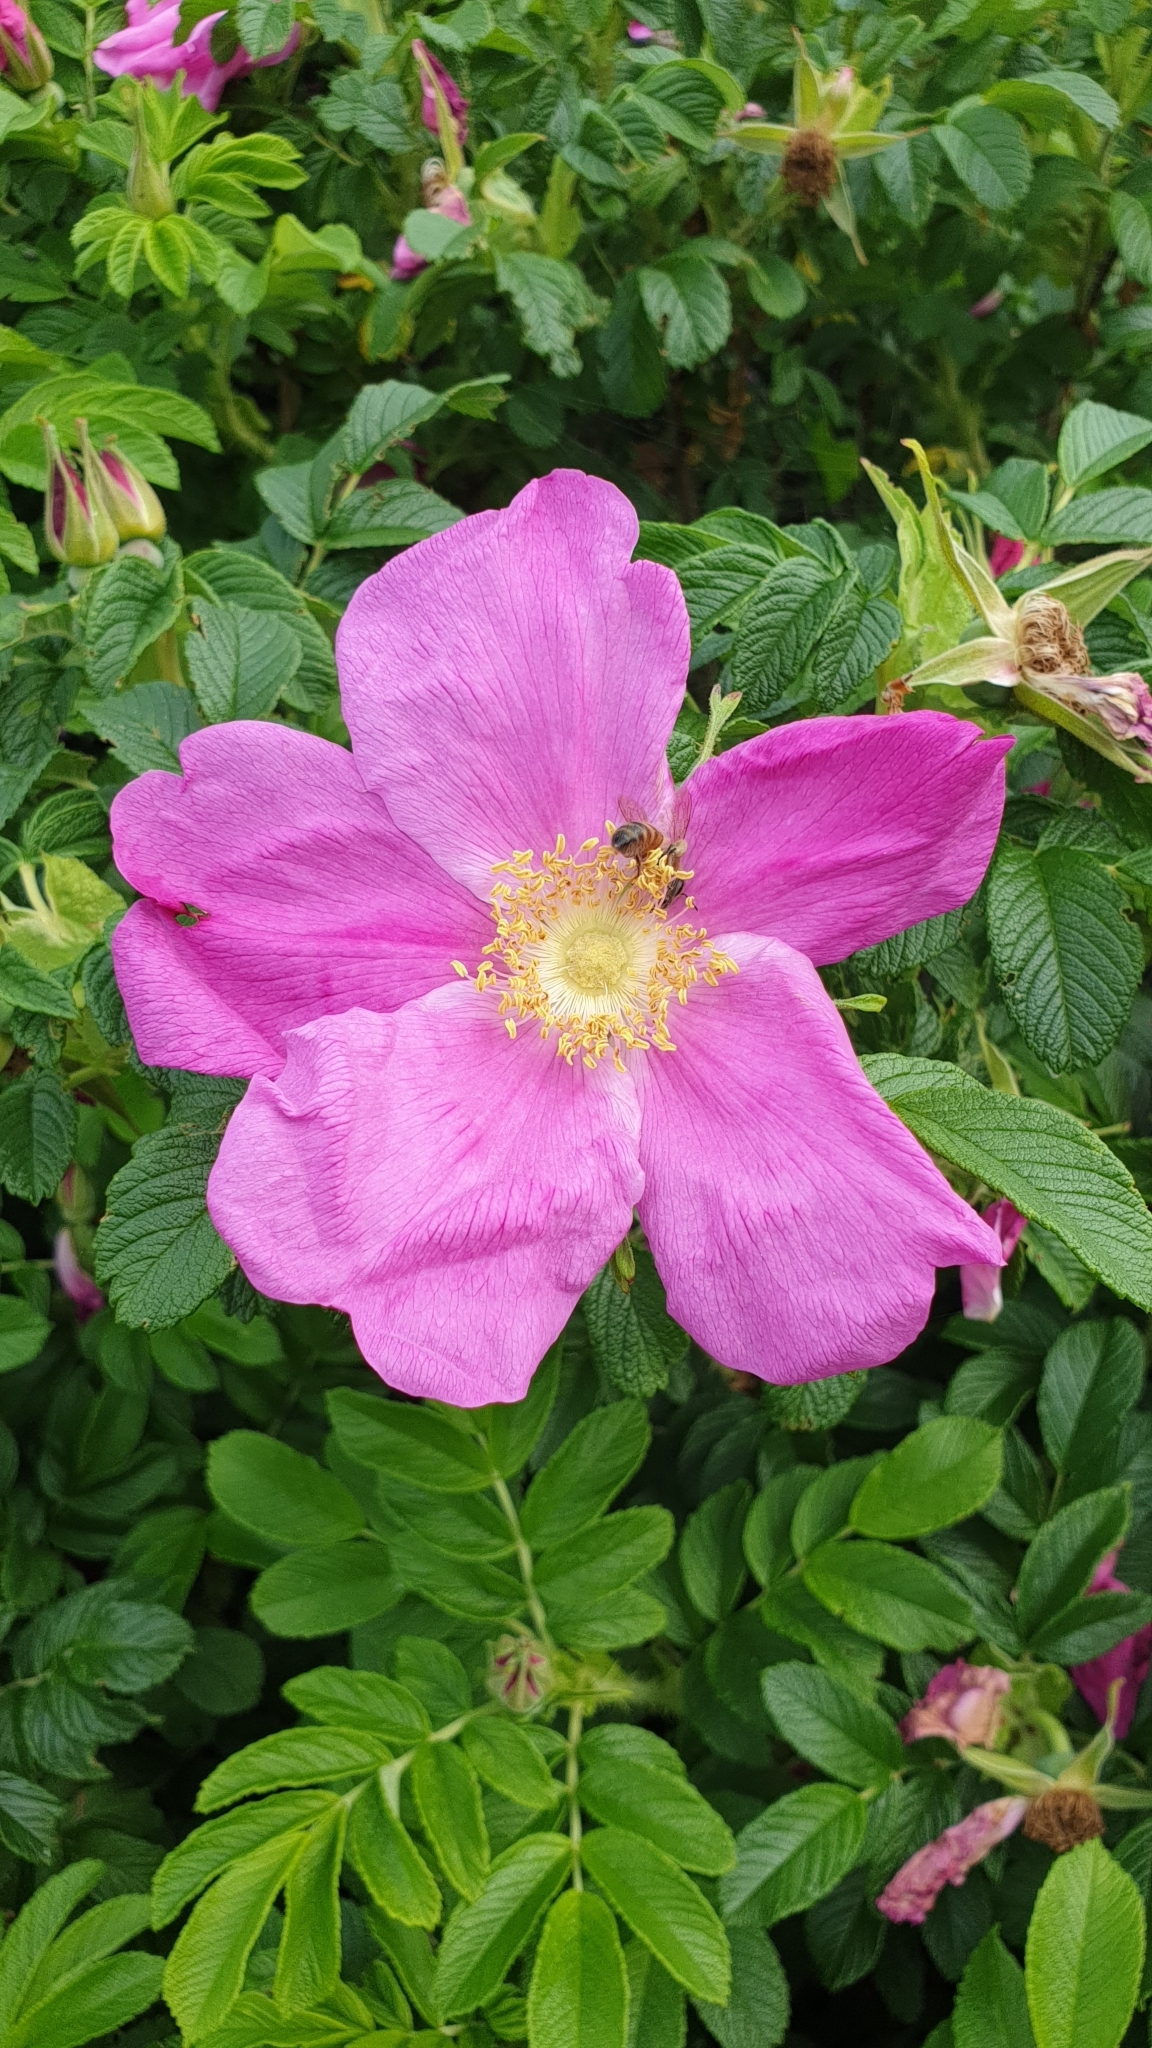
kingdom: Plantae
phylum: Tracheophyta
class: Magnoliopsida
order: Rosales
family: Rosaceae
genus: Rosa
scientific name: Rosa rugosa
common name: Japanese rose
